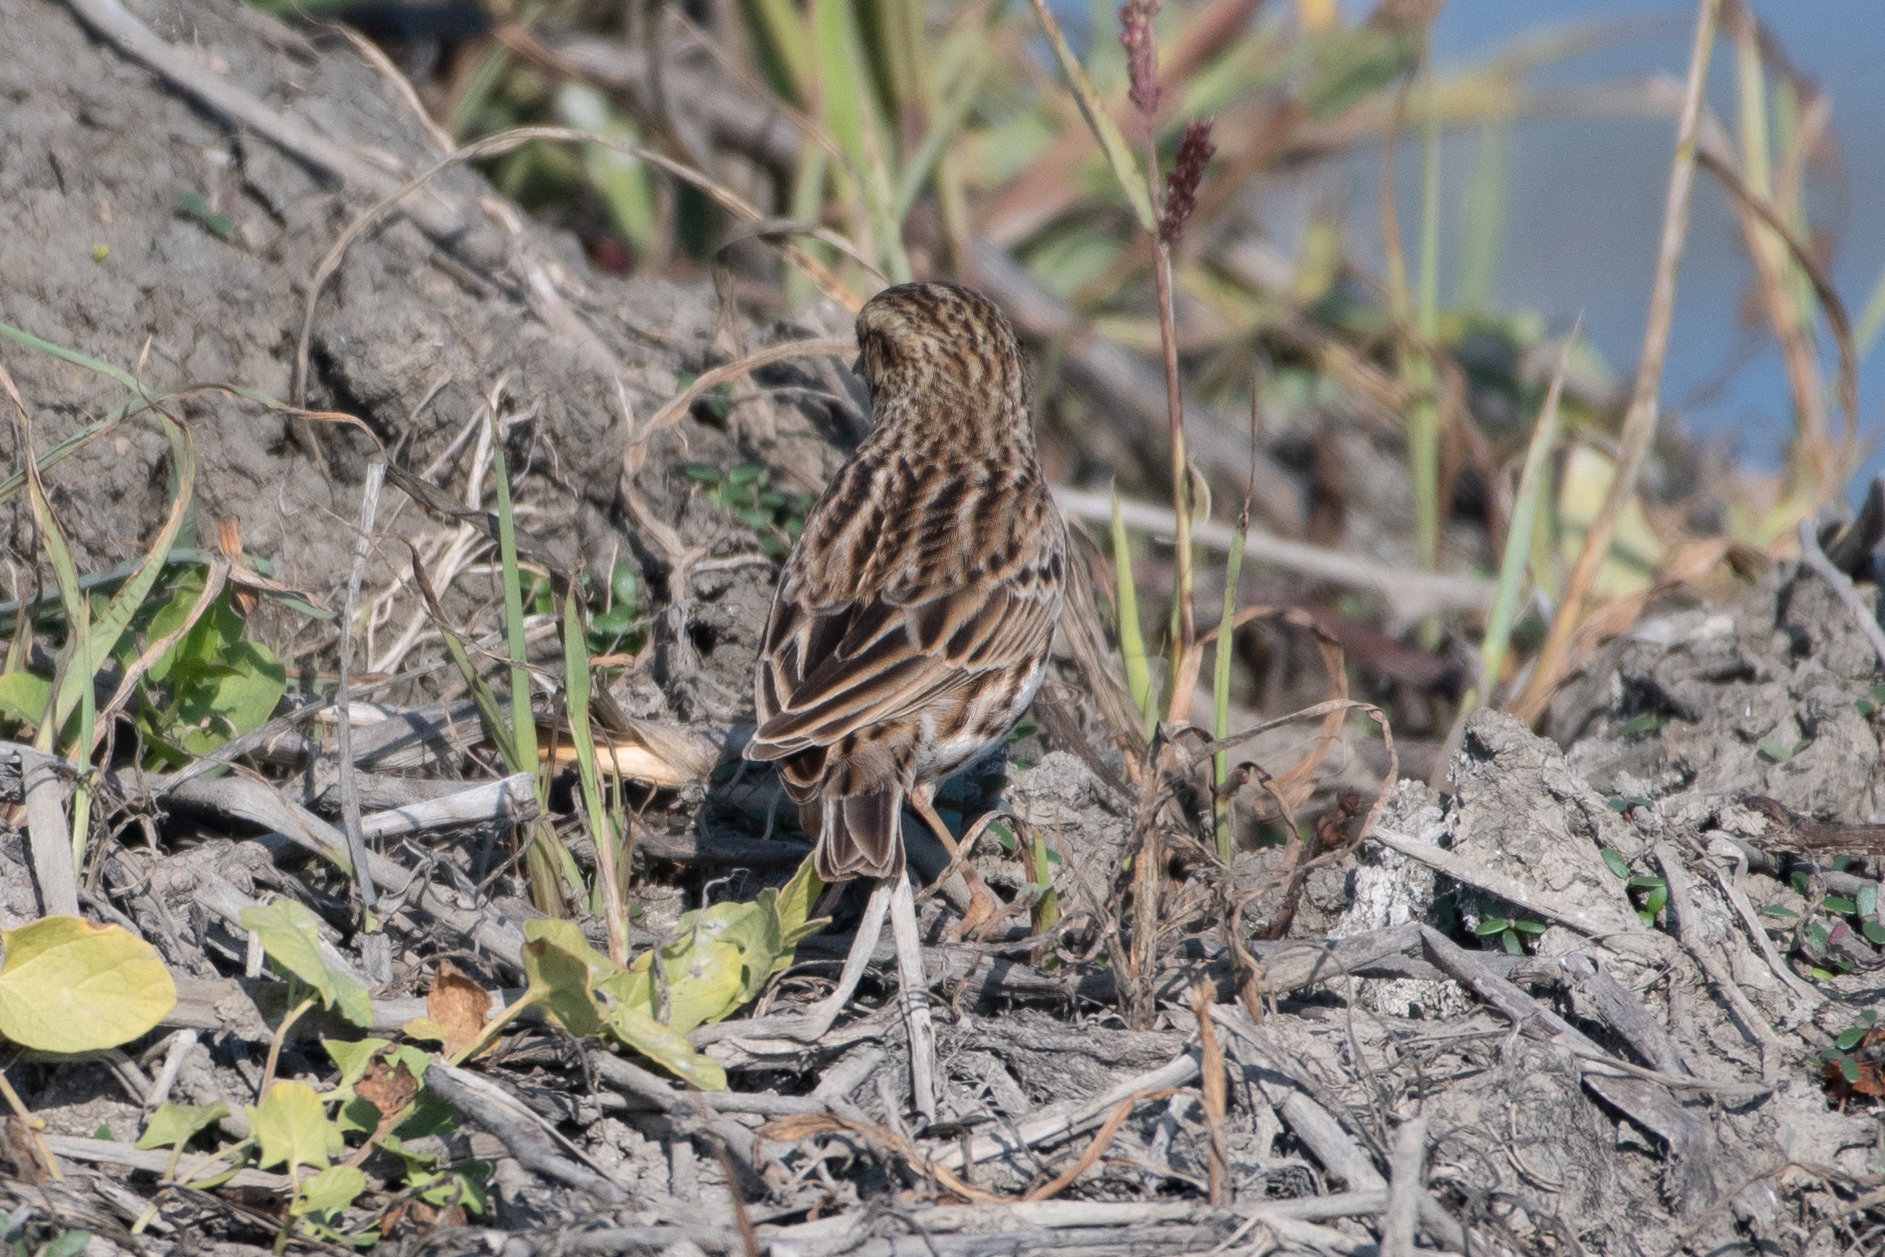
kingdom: Animalia
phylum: Chordata
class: Aves
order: Passeriformes
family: Passerellidae
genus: Passerculus
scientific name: Passerculus sandwichensis
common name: Savannah sparrow
